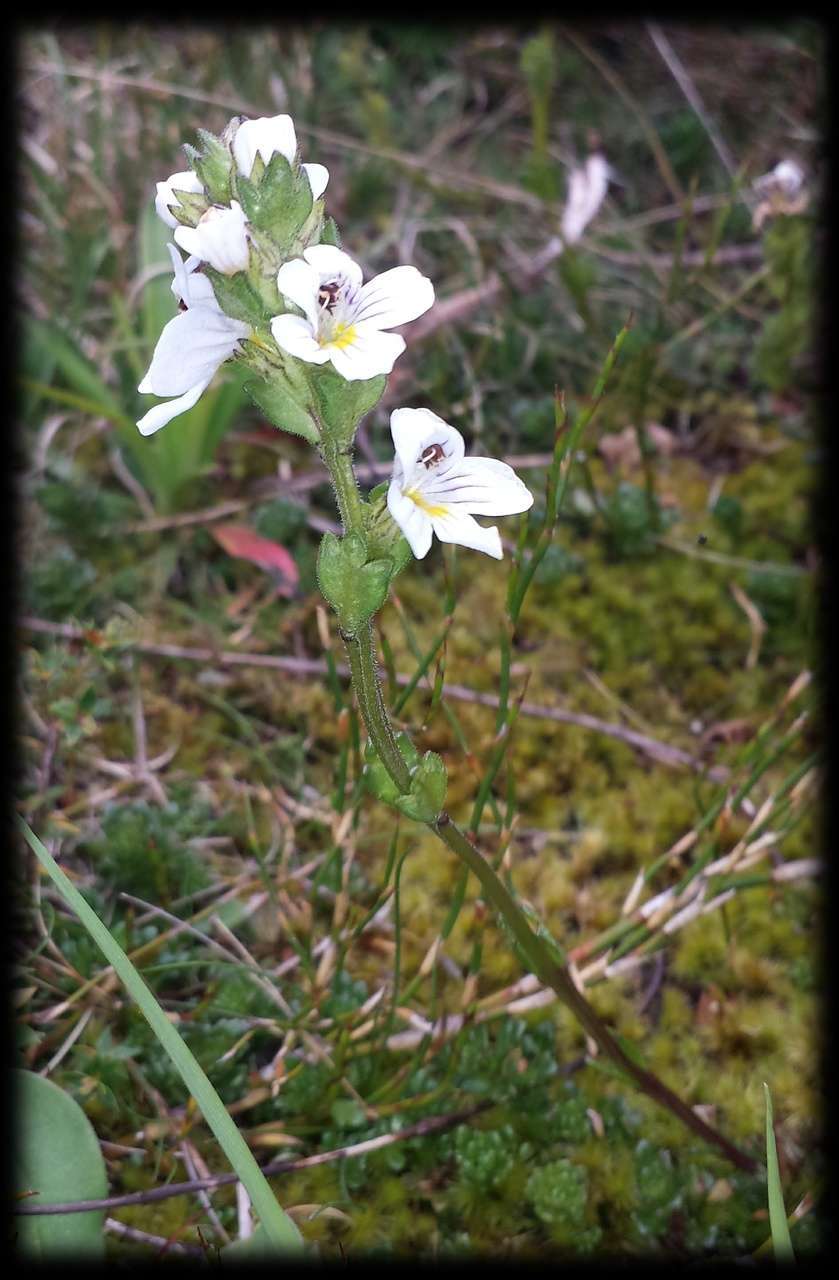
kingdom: Plantae
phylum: Tracheophyta
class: Magnoliopsida
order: Lamiales
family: Orobanchaceae
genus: Euphrasia
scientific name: Euphrasia gibbsiae
